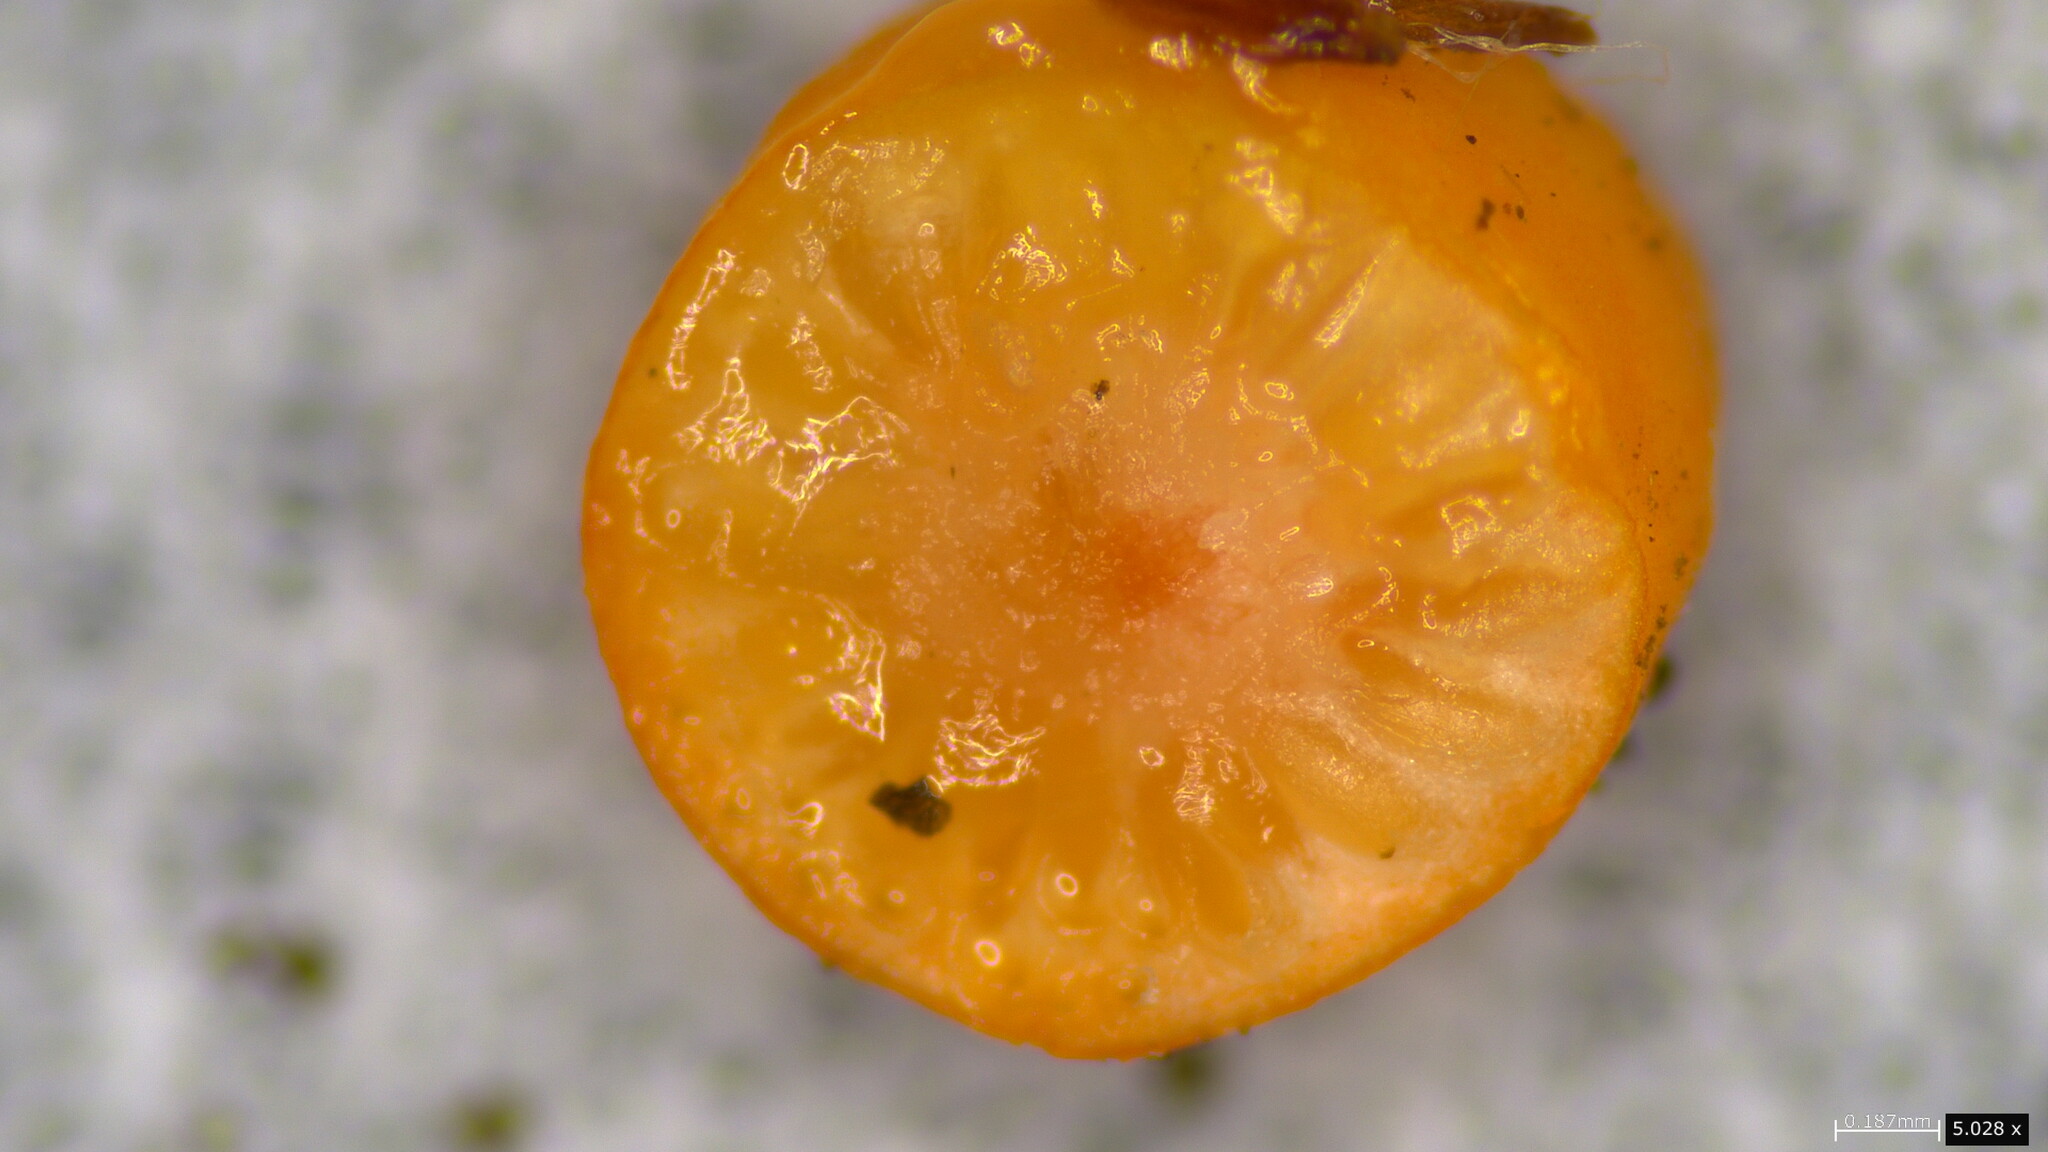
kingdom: Fungi
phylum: Ascomycota
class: Sordariomycetes
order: Hypocreales
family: Ophiocordycipitaceae
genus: Ophiocordyceps
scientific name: Ophiocordyceps nutans
